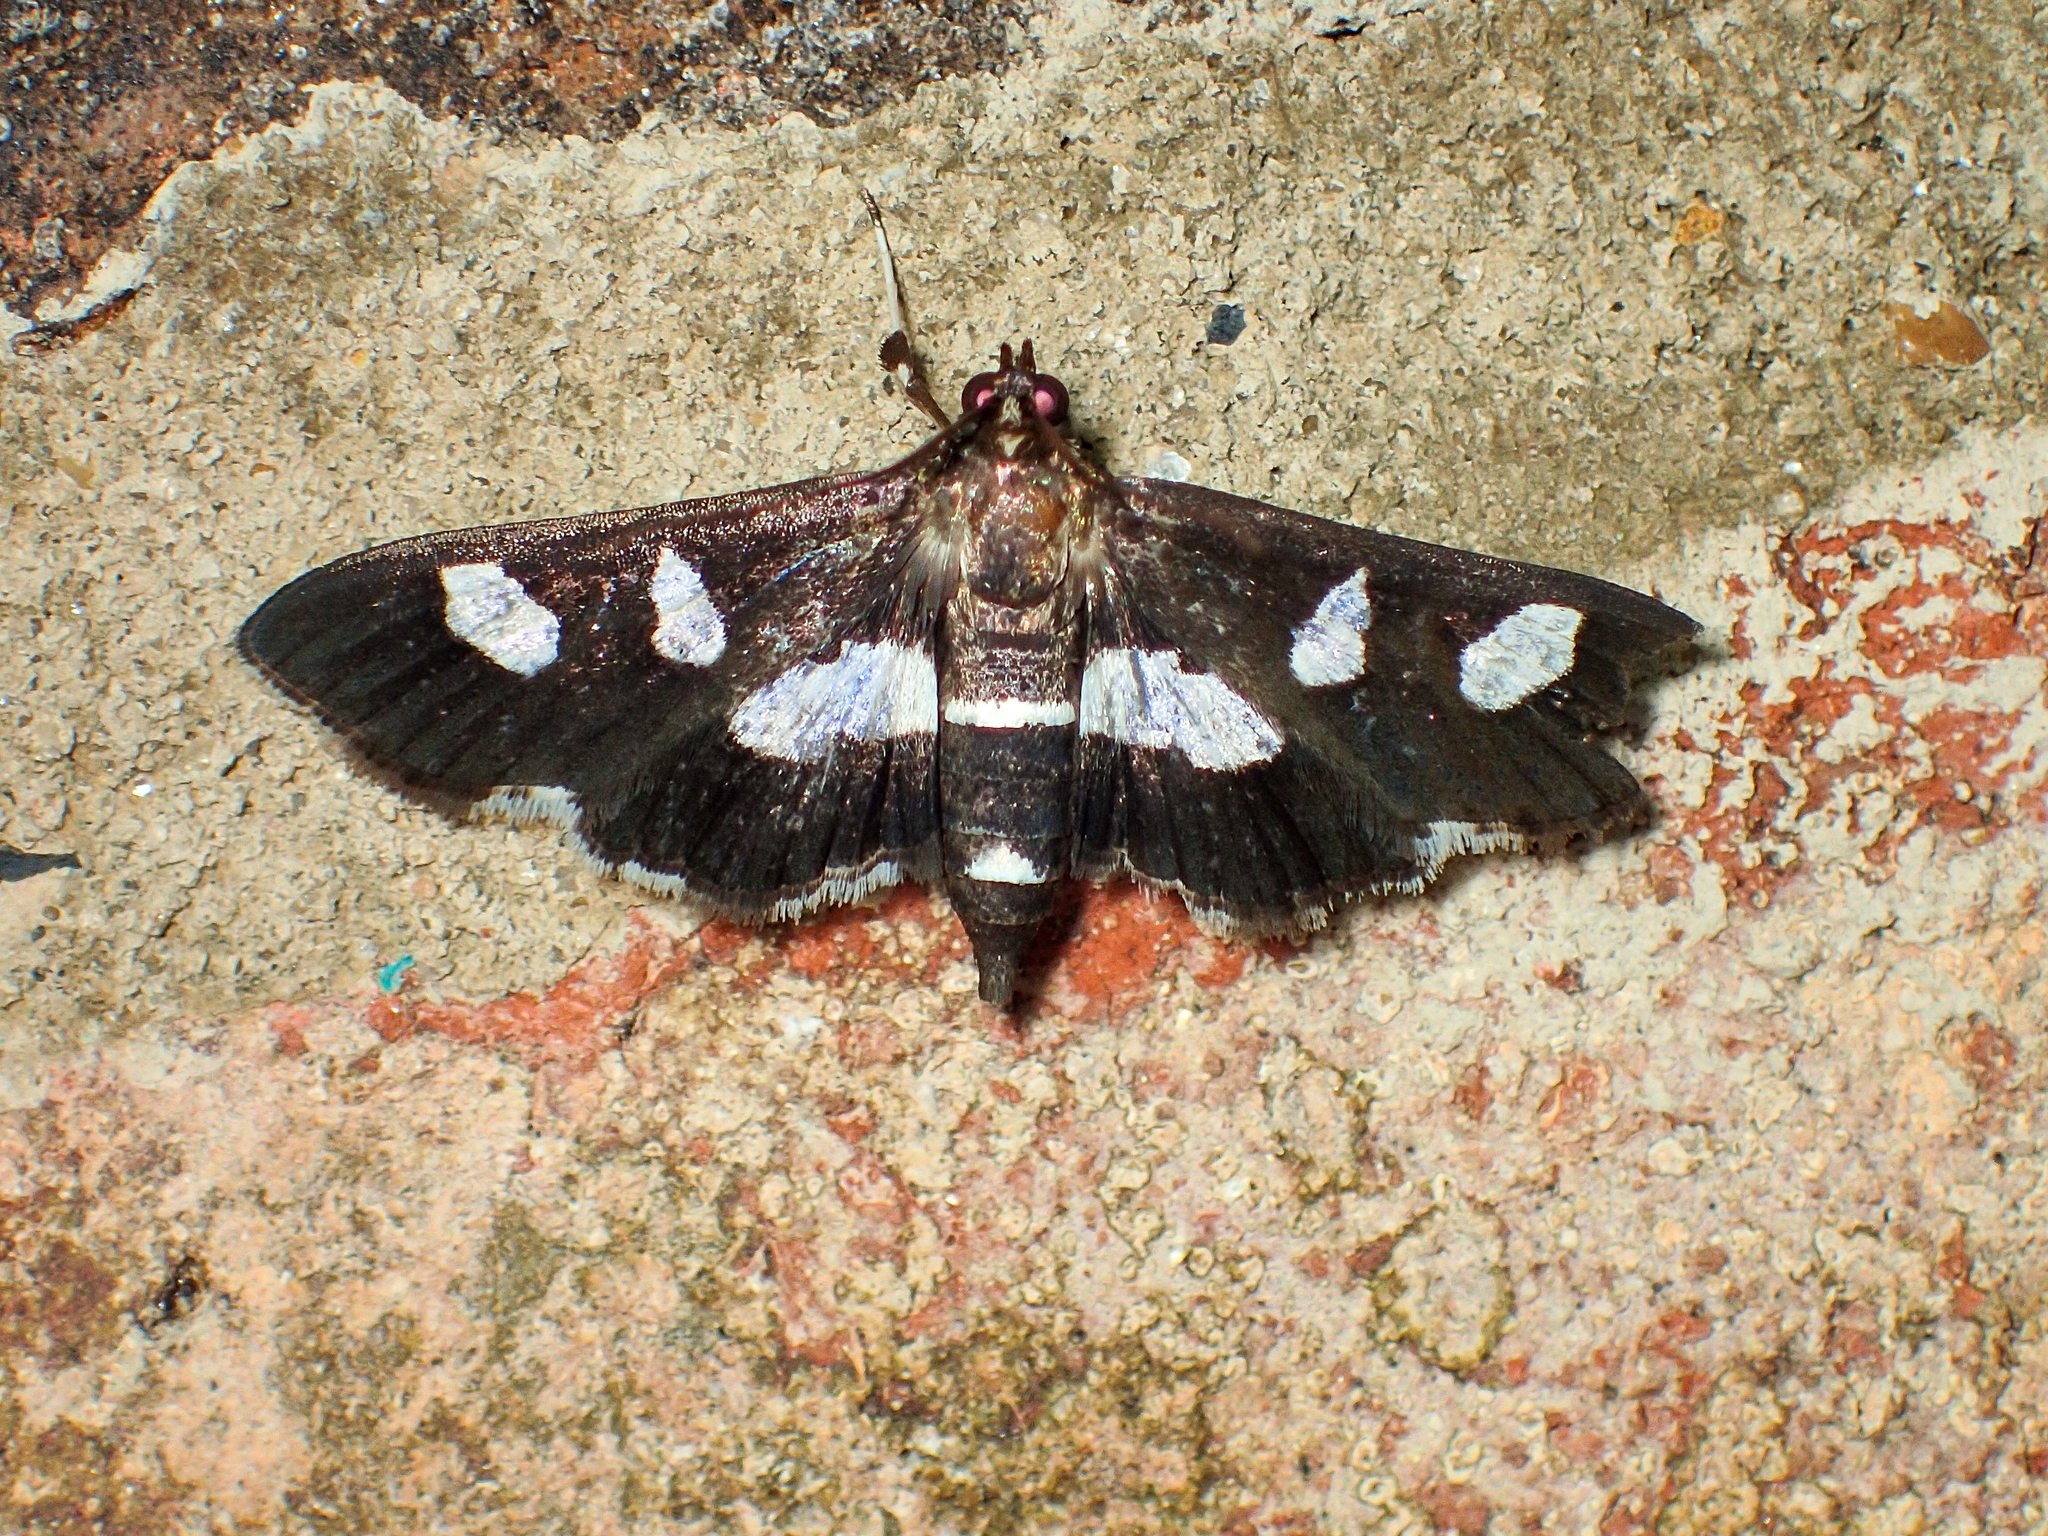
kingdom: Animalia
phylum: Arthropoda
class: Insecta
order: Lepidoptera
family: Crambidae
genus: Desmia
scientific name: Desmia
